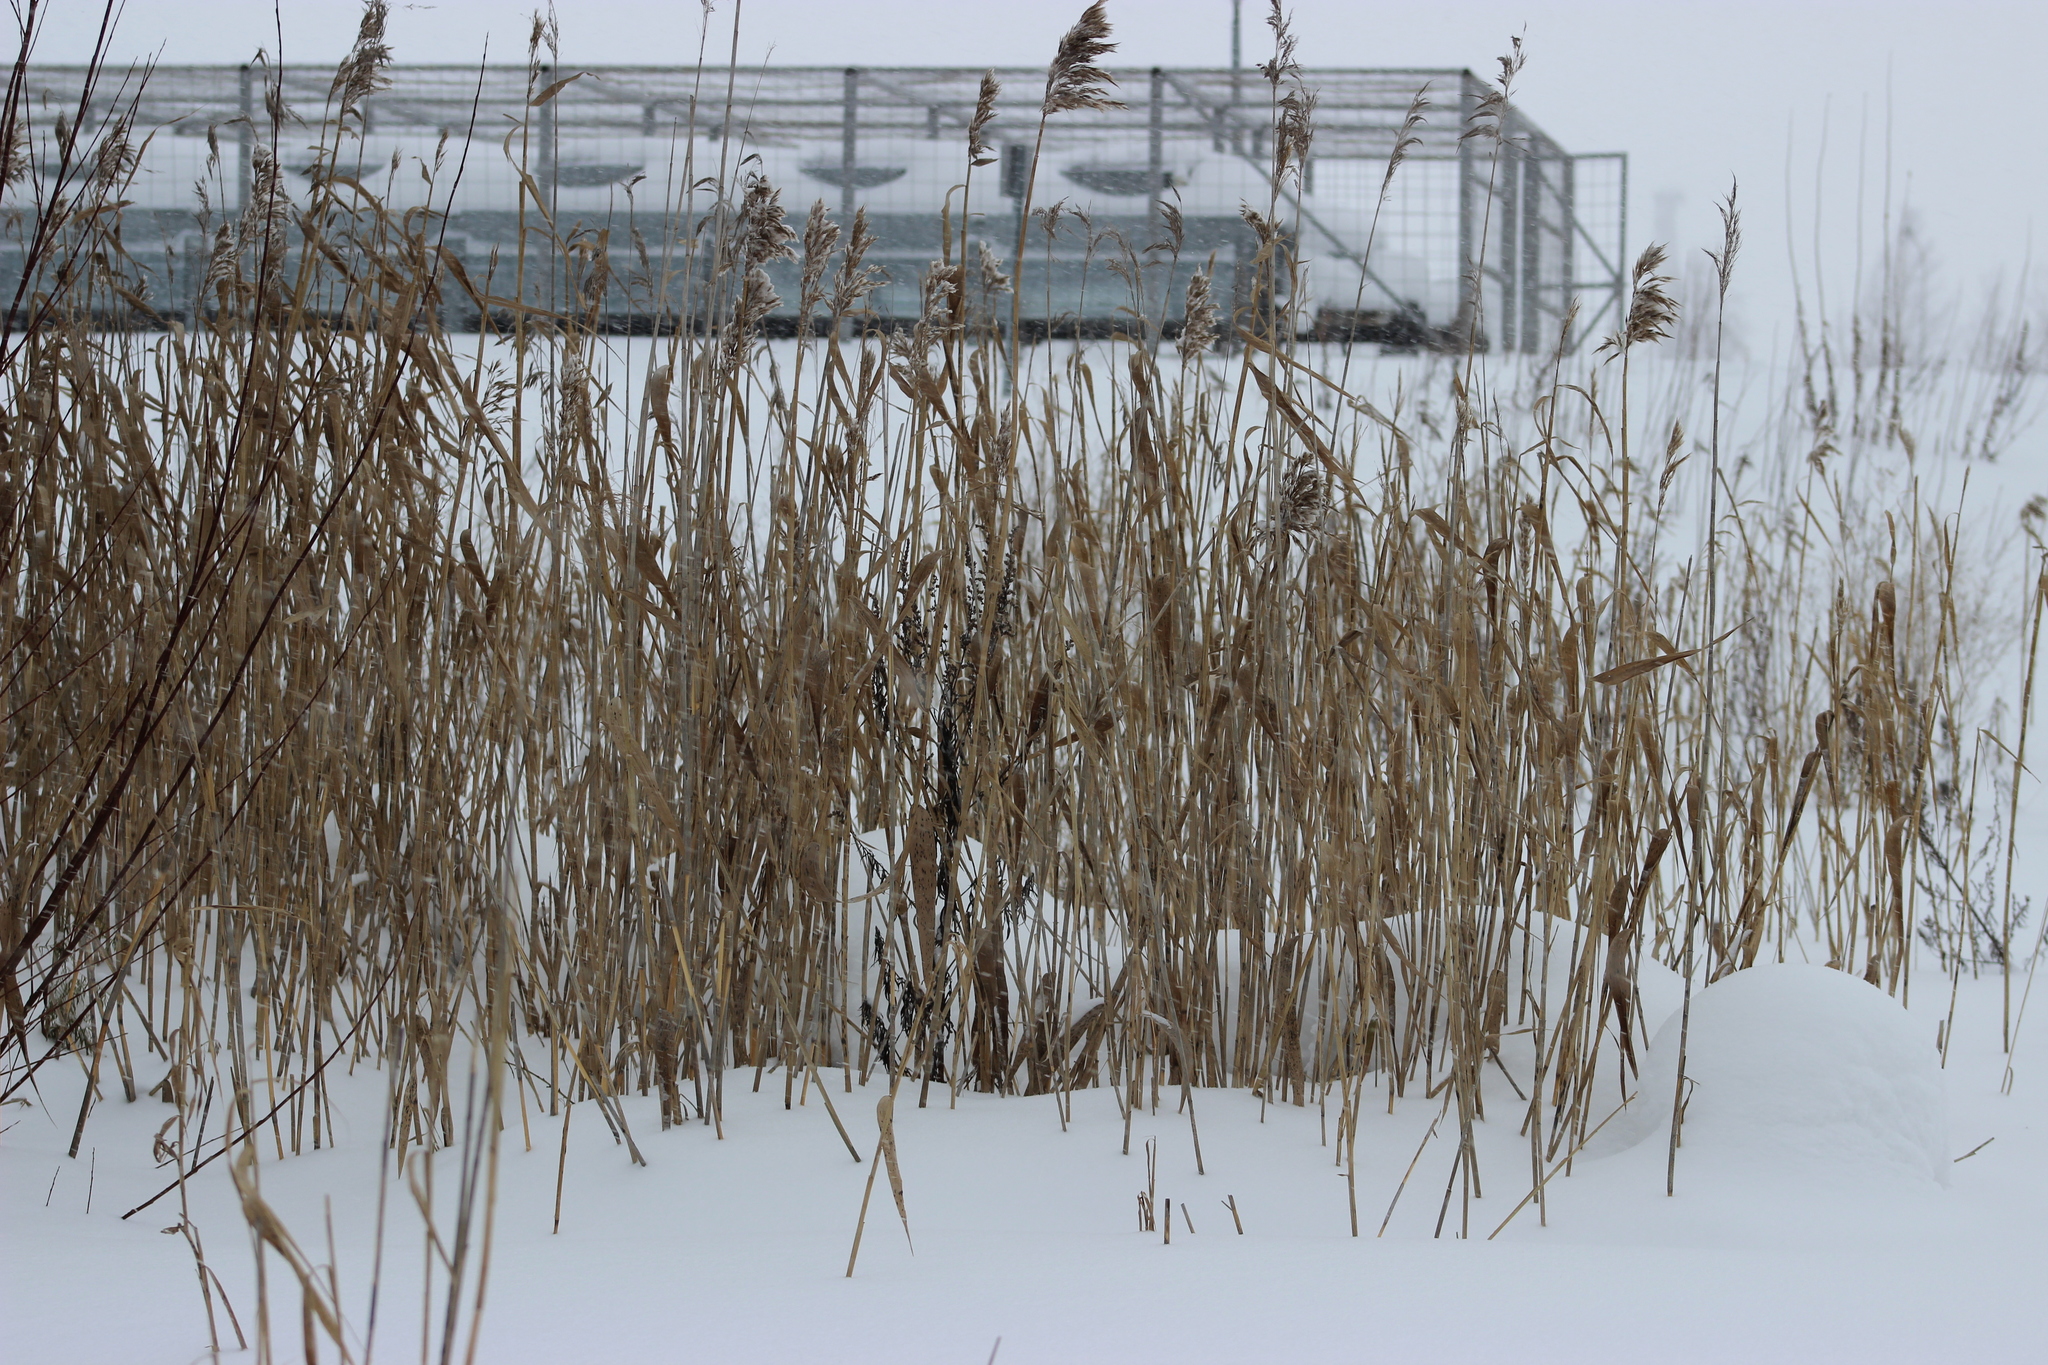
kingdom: Plantae
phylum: Tracheophyta
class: Liliopsida
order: Poales
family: Poaceae
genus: Phragmites
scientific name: Phragmites australis
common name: Common reed
